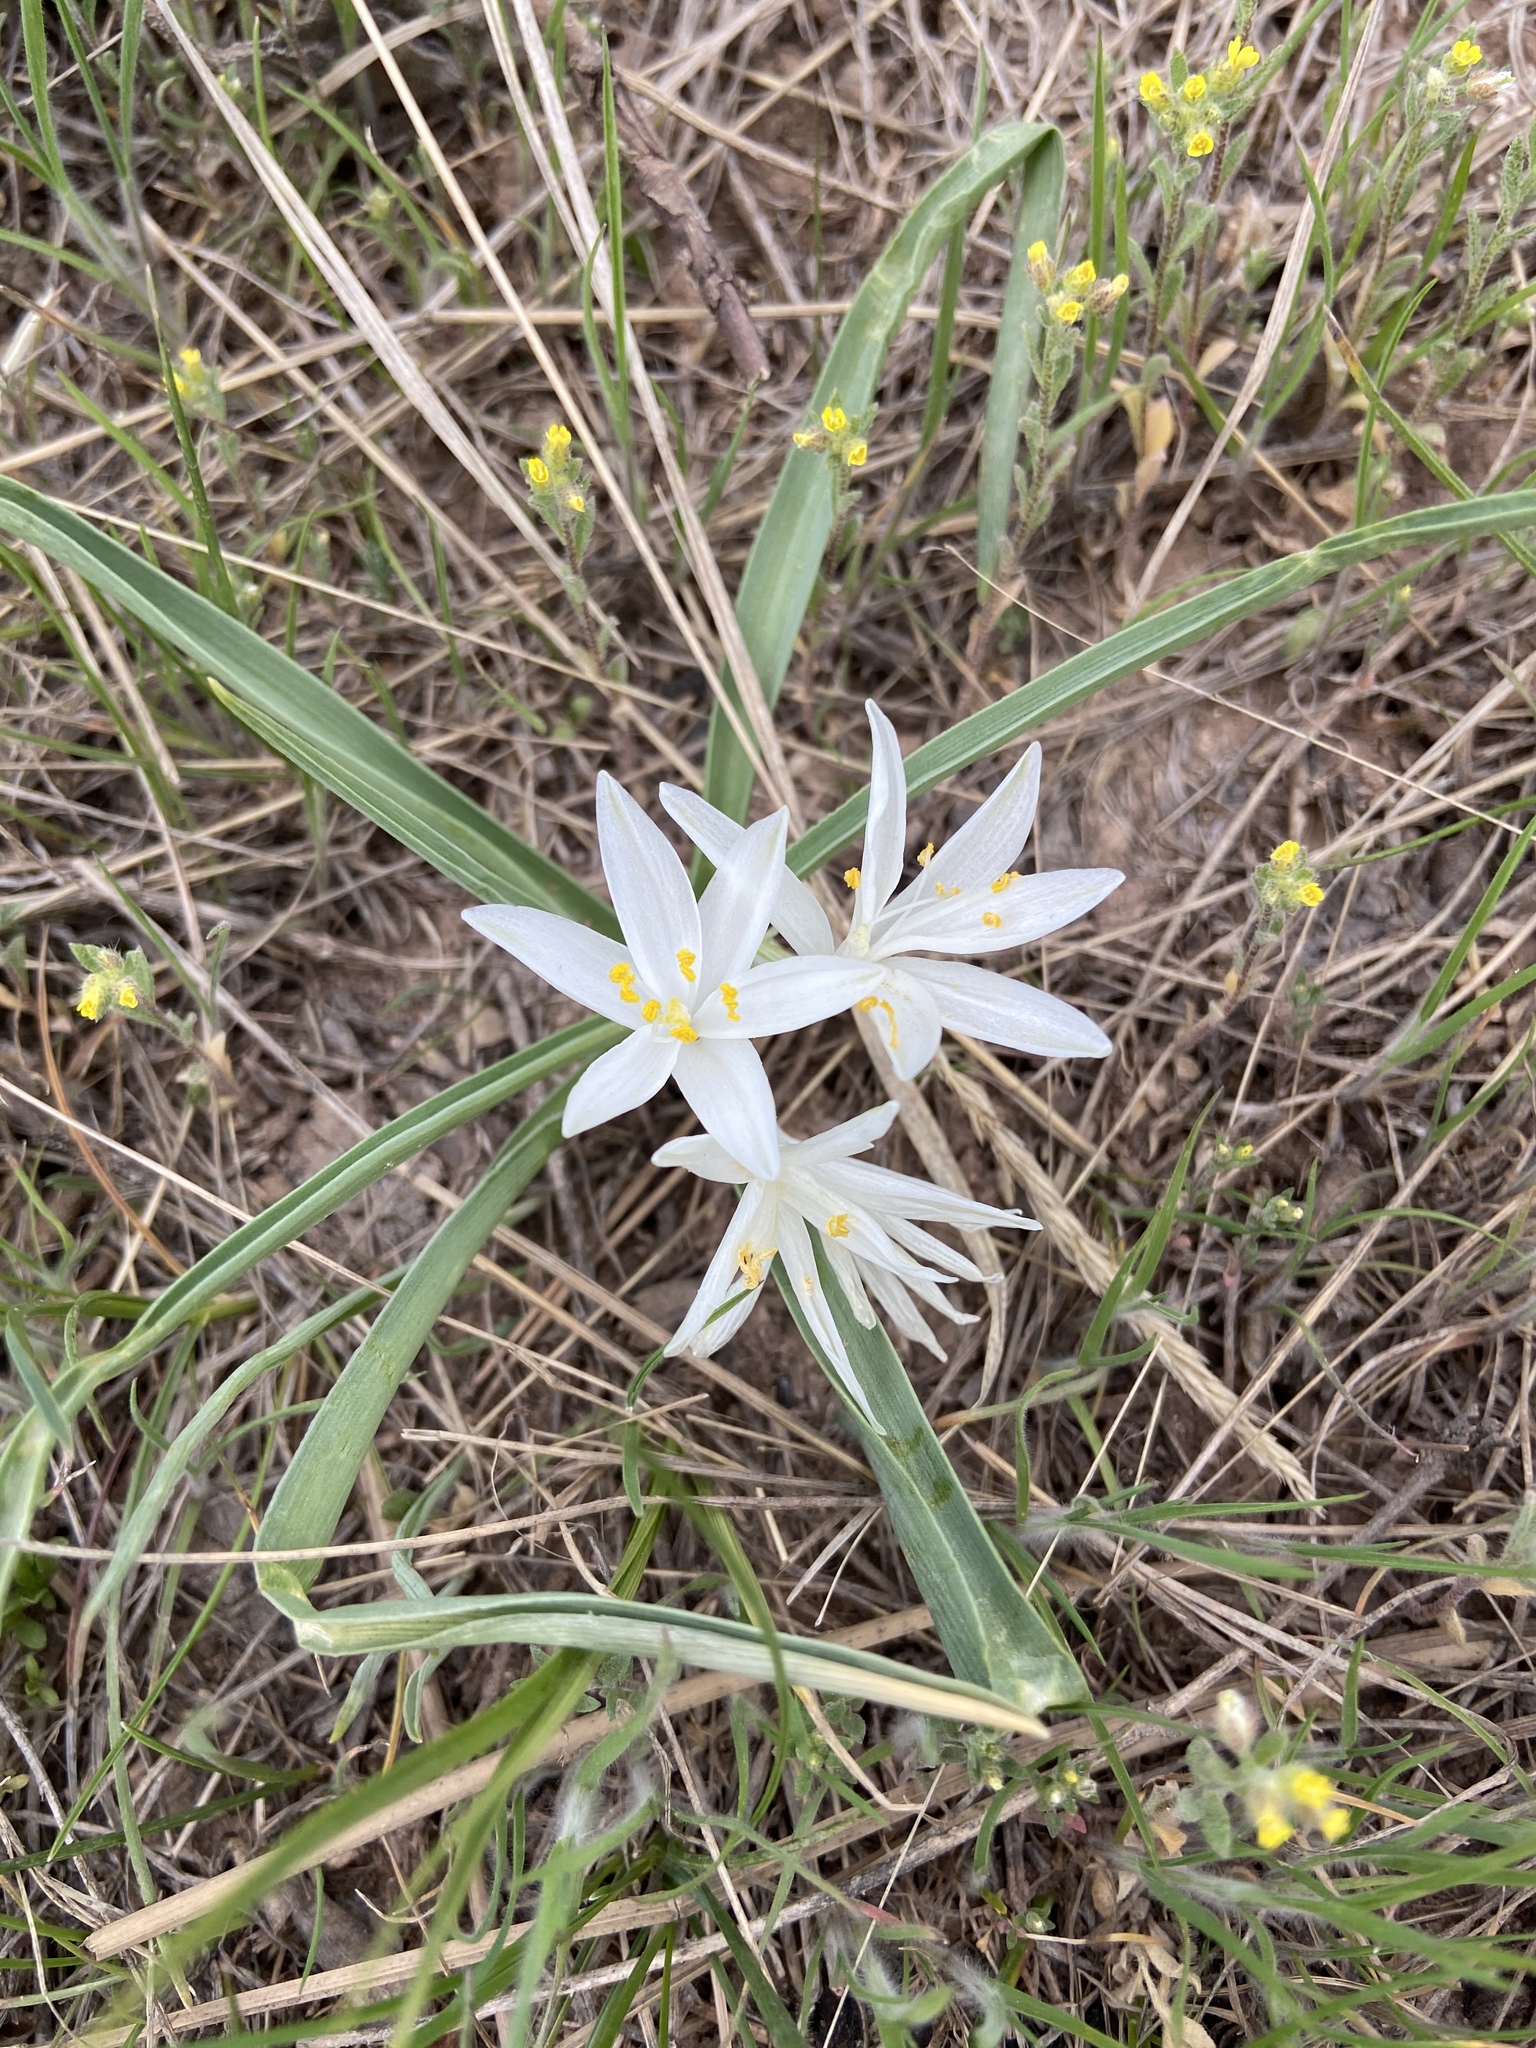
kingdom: Plantae
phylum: Tracheophyta
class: Liliopsida
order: Asparagales
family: Asparagaceae
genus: Leucocrinum
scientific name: Leucocrinum montanum
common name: Mountain-lily
